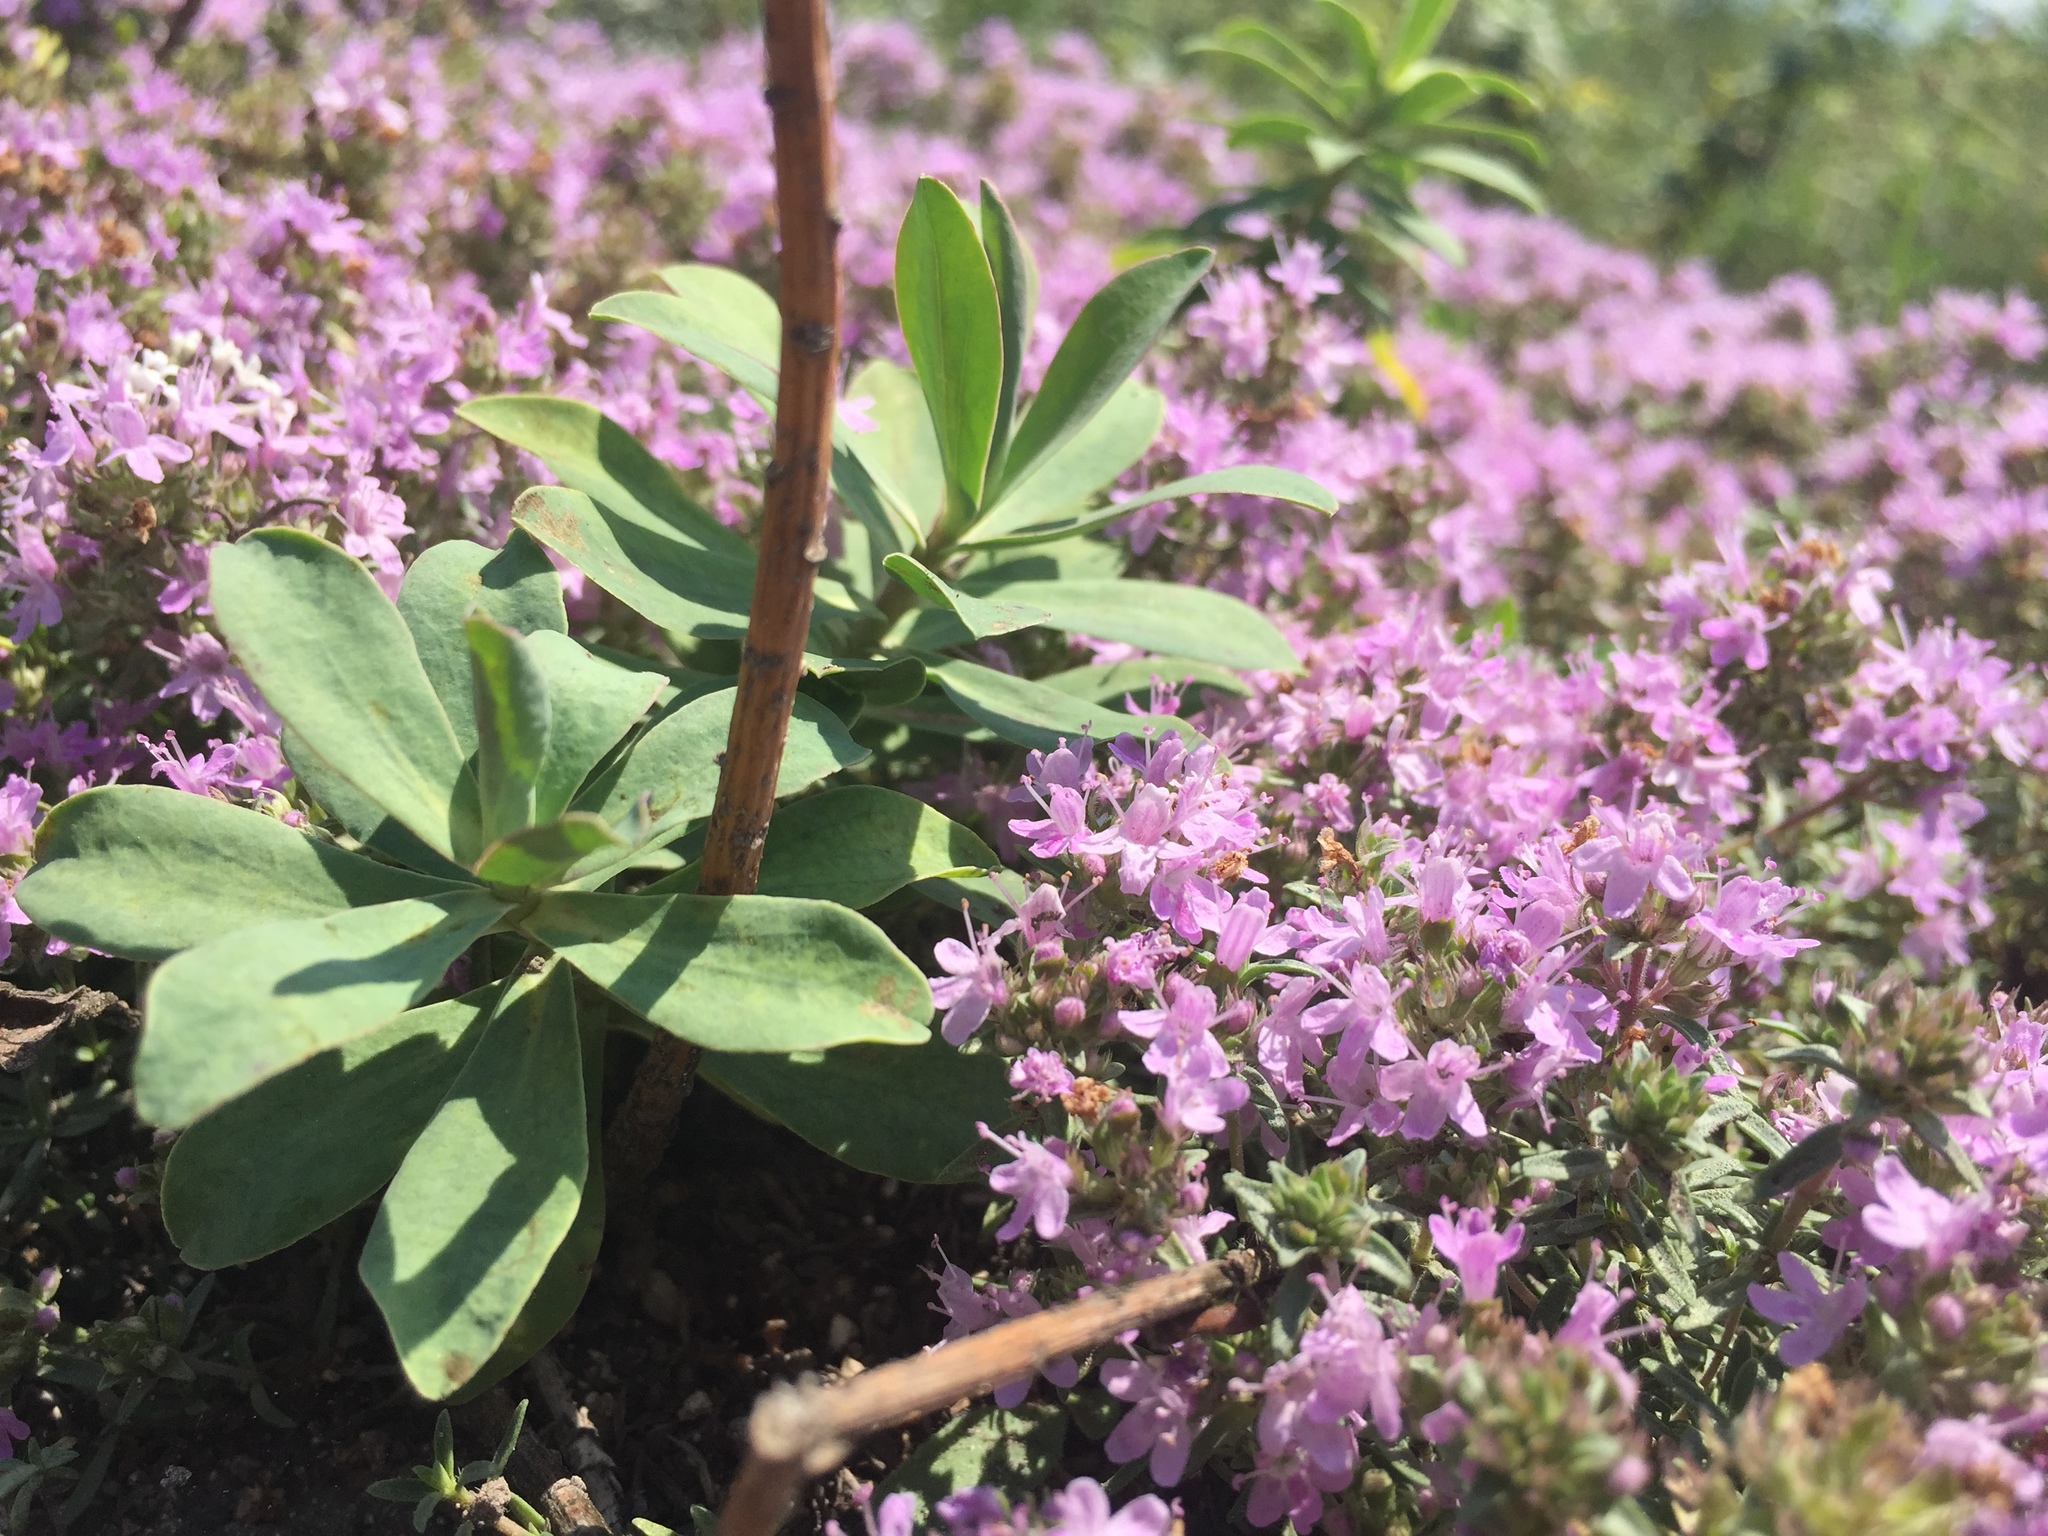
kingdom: Plantae
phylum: Tracheophyta
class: Magnoliopsida
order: Lamiales
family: Lamiaceae
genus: Thymus
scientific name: Thymus calcareus
